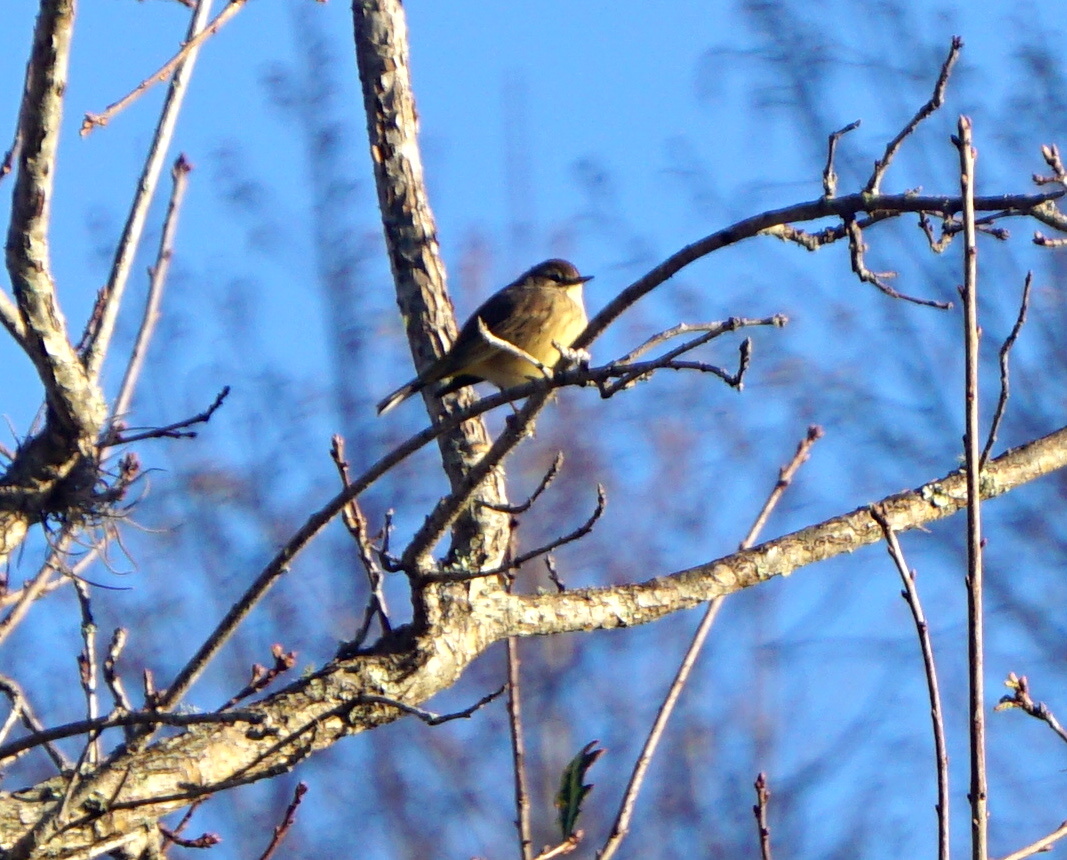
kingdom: Animalia
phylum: Chordata
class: Aves
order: Passeriformes
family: Parulidae
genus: Setophaga
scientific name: Setophaga palmarum
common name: Palm warbler
